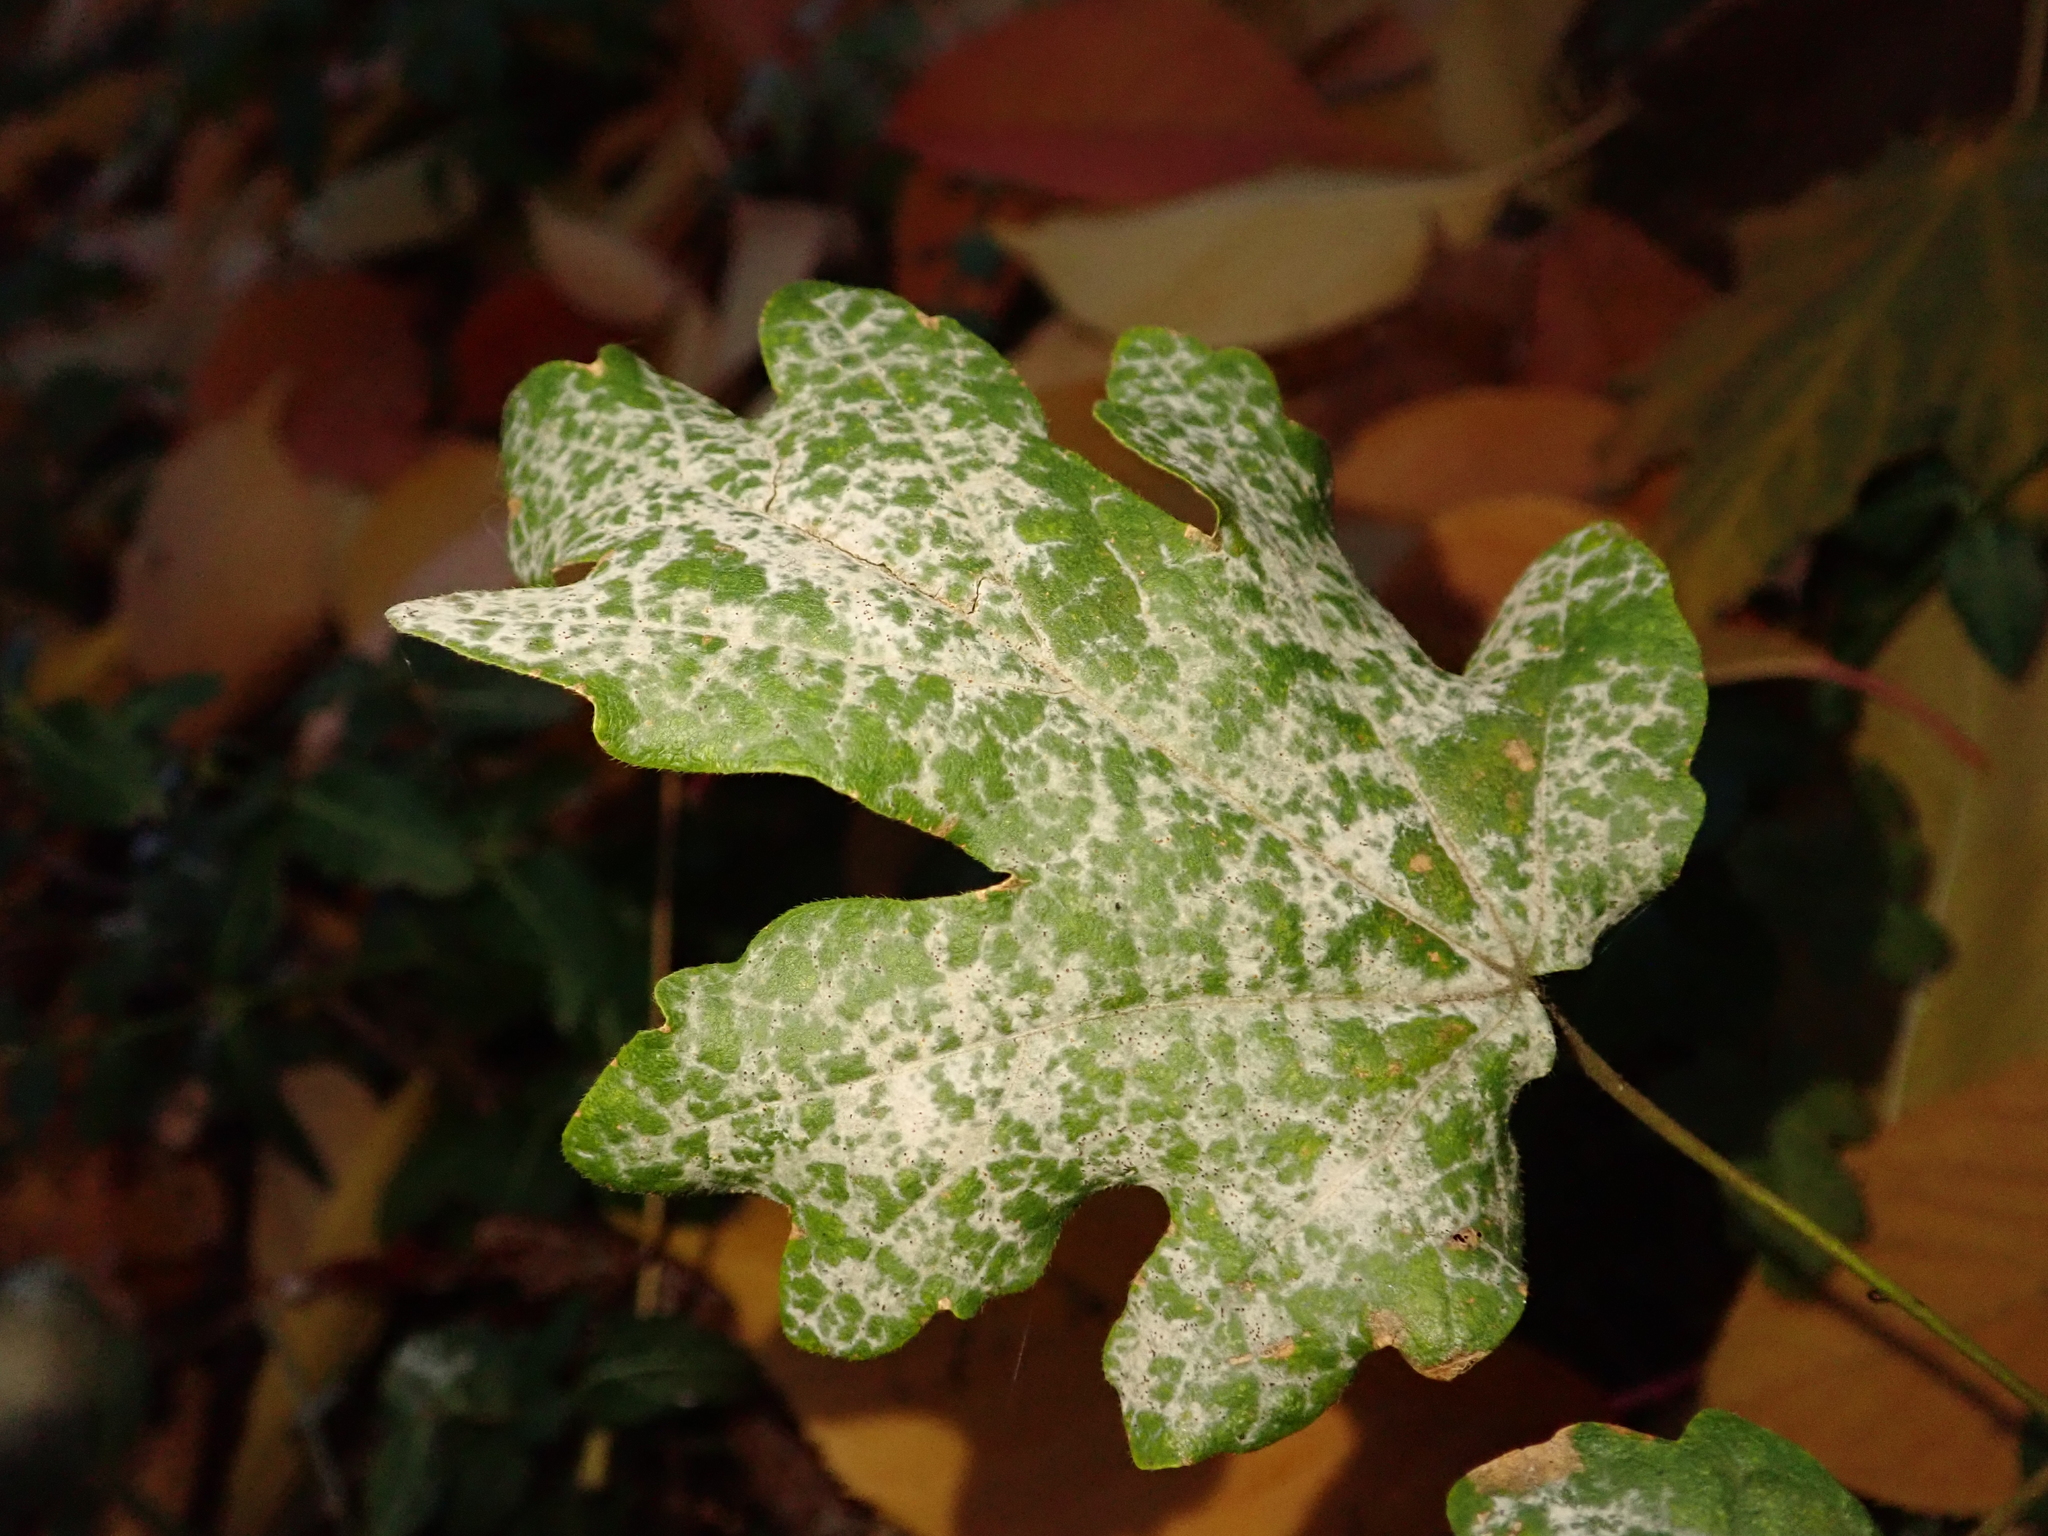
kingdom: Plantae
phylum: Tracheophyta
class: Magnoliopsida
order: Sapindales
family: Sapindaceae
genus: Acer
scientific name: Acer campestre
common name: Field maple
